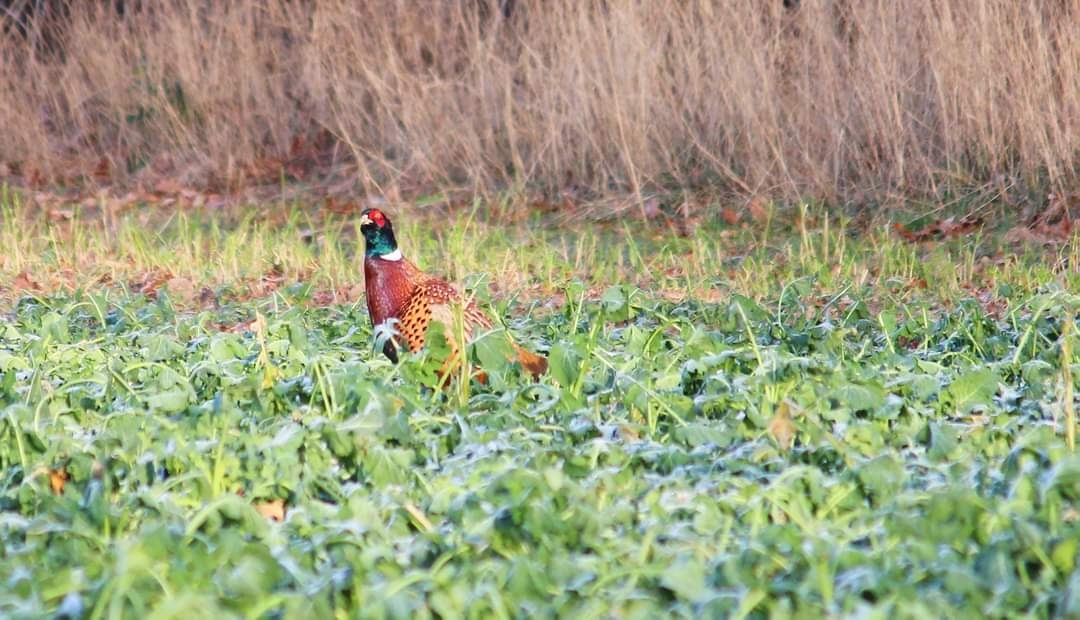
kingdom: Animalia
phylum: Chordata
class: Aves
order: Galliformes
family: Phasianidae
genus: Phasianus
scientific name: Phasianus colchicus
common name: Common pheasant
